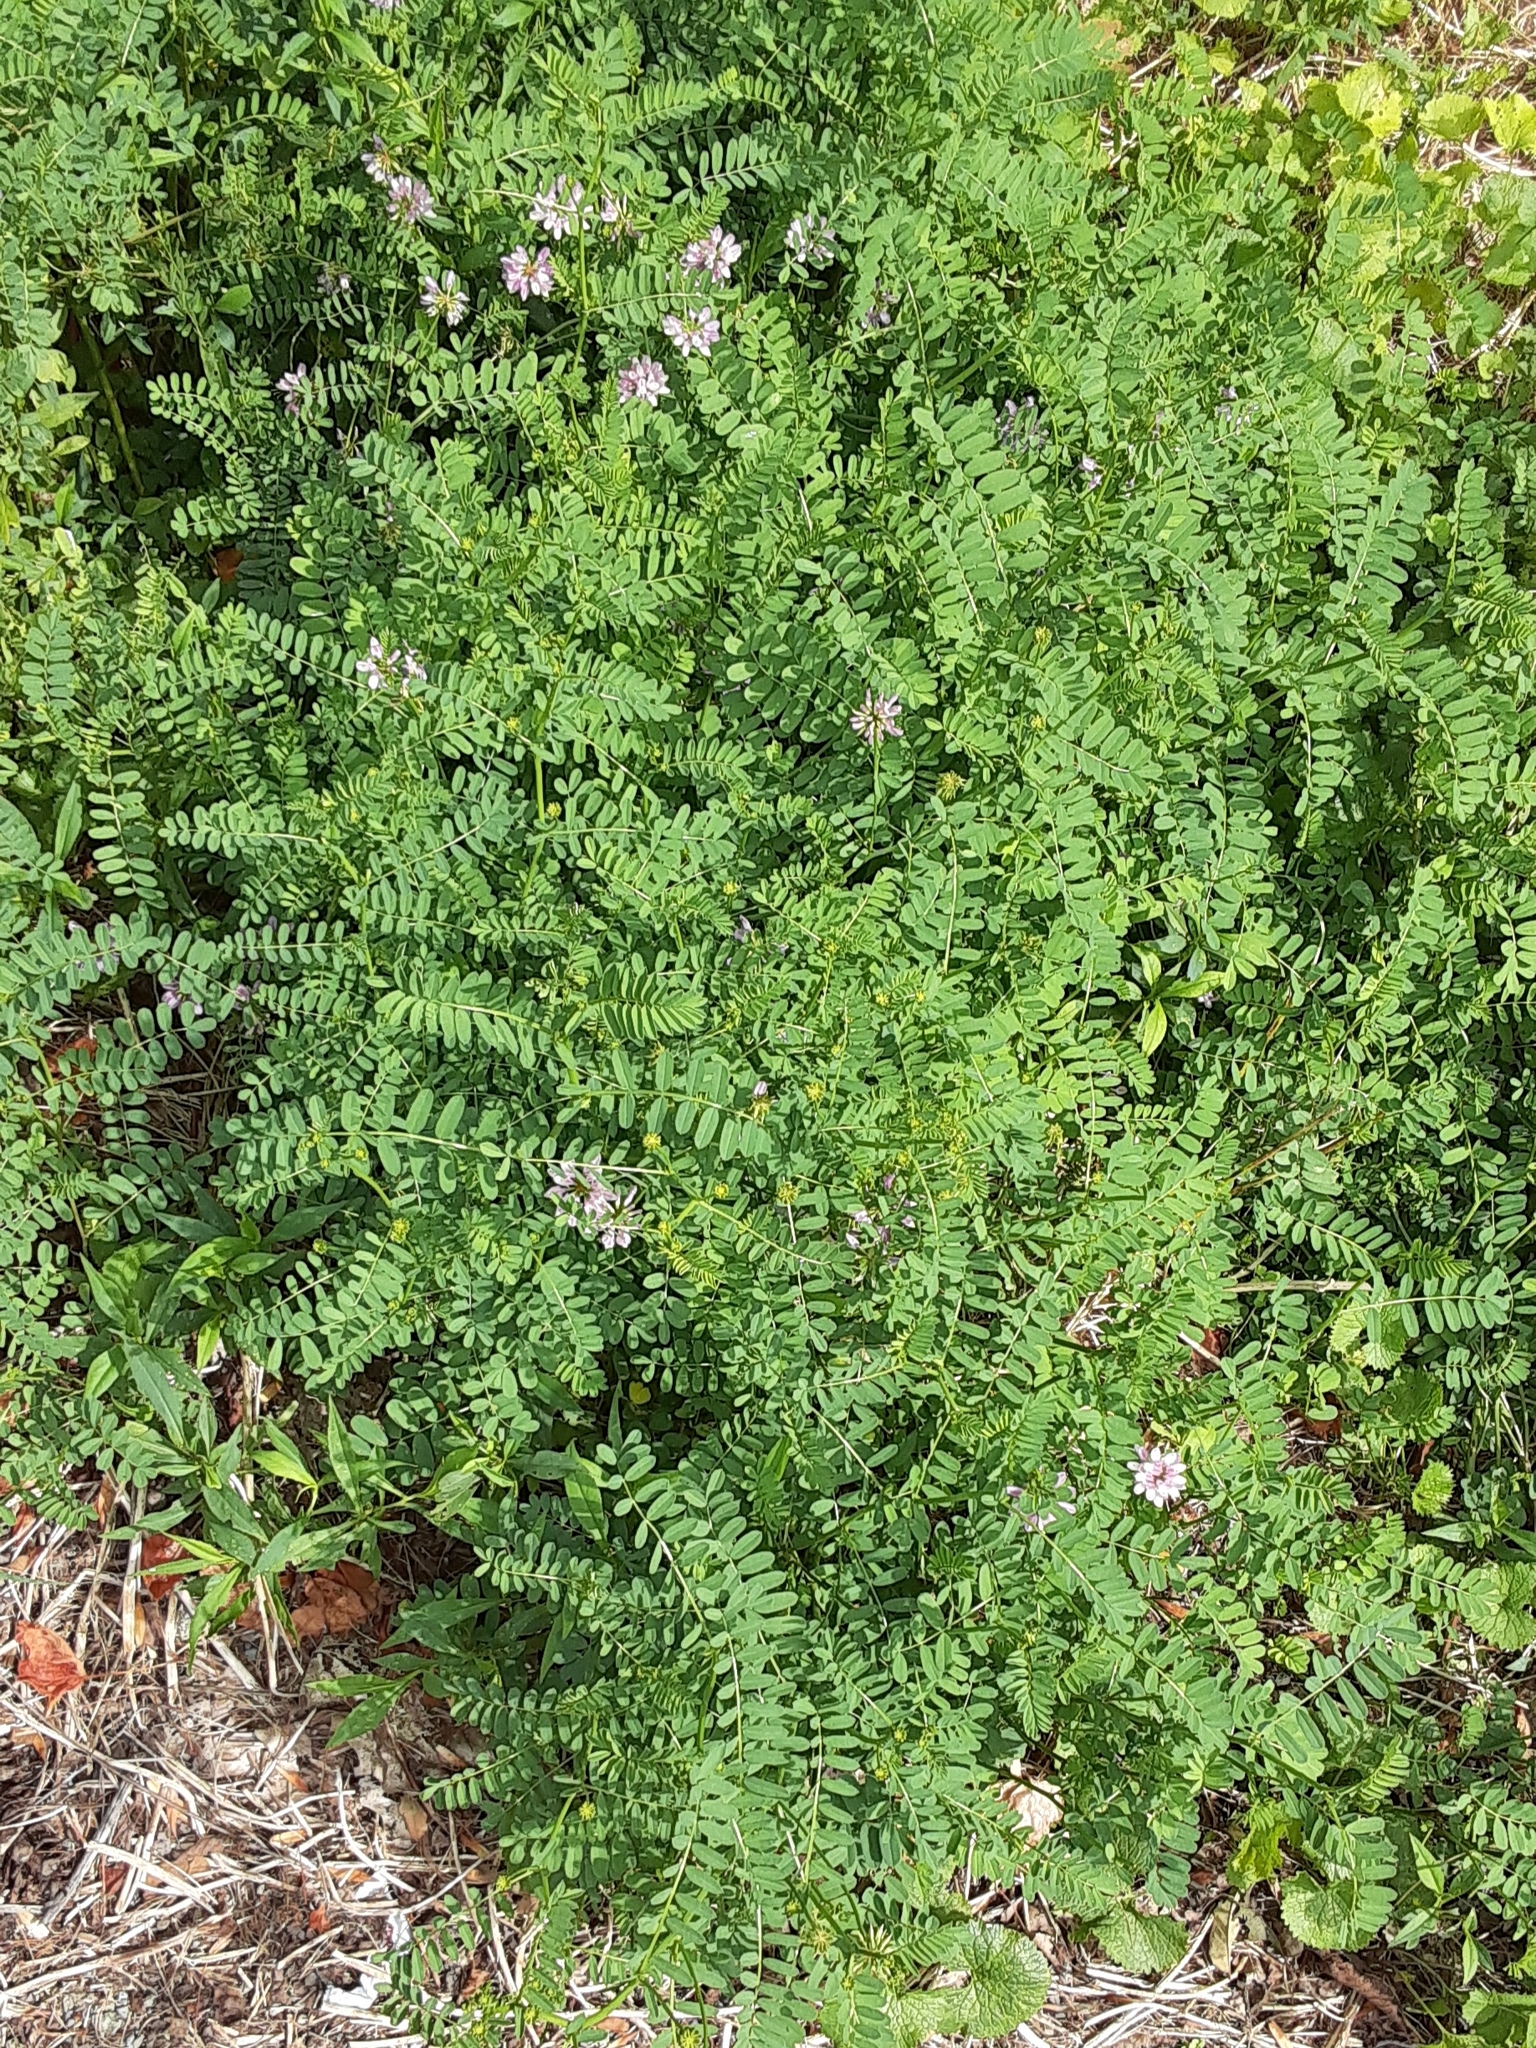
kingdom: Plantae
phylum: Tracheophyta
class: Magnoliopsida
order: Fabales
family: Fabaceae
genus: Coronilla
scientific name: Coronilla varia
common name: Crownvetch
